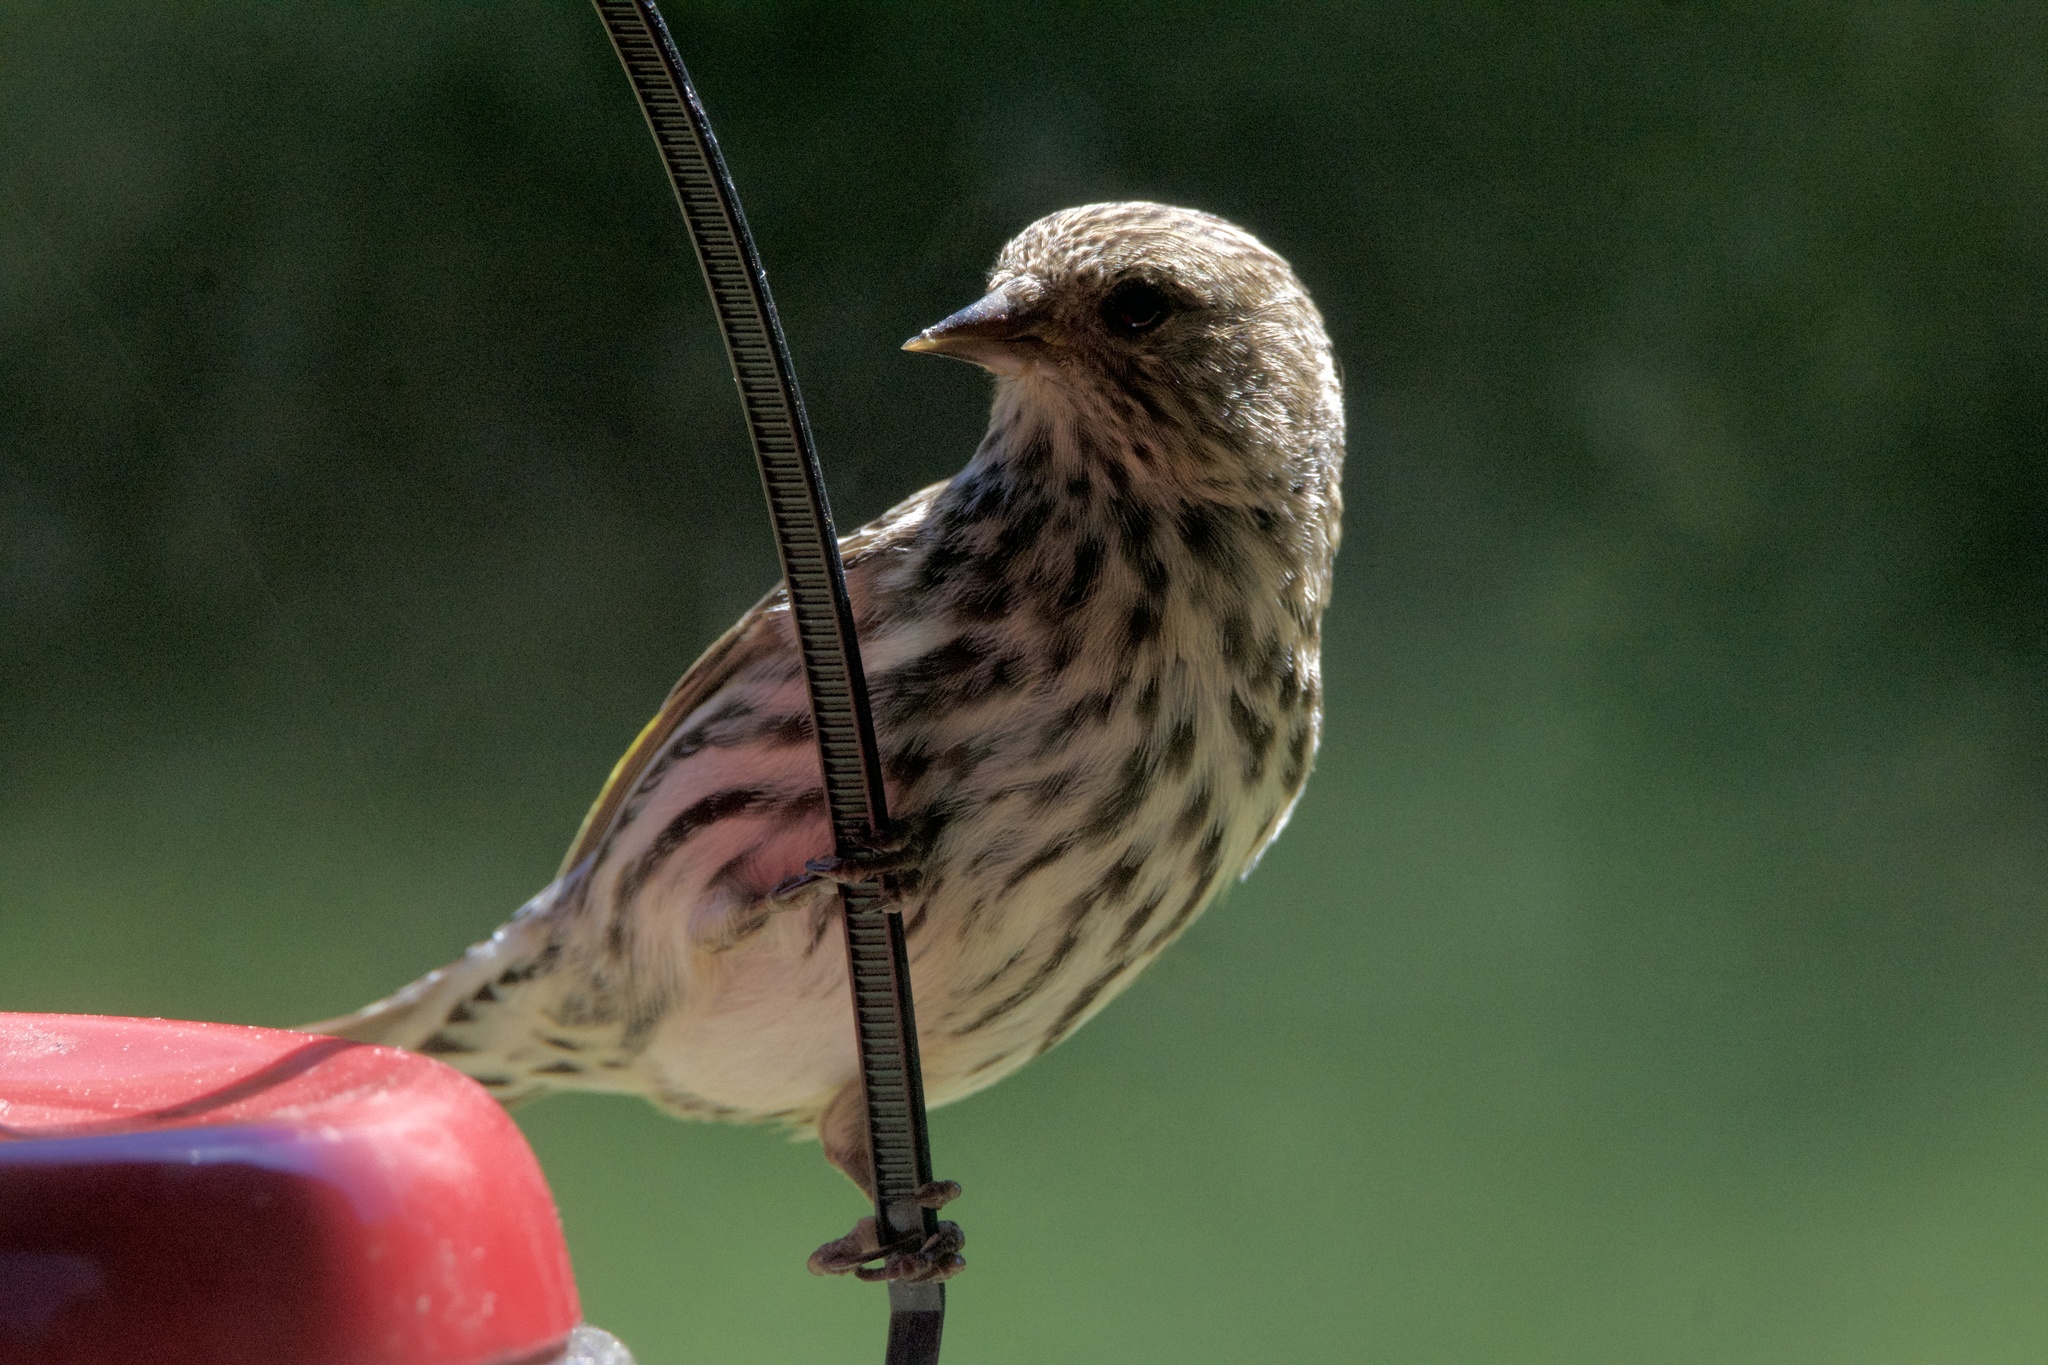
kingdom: Animalia
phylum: Chordata
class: Aves
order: Passeriformes
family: Fringillidae
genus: Spinus
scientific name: Spinus pinus
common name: Pine siskin
